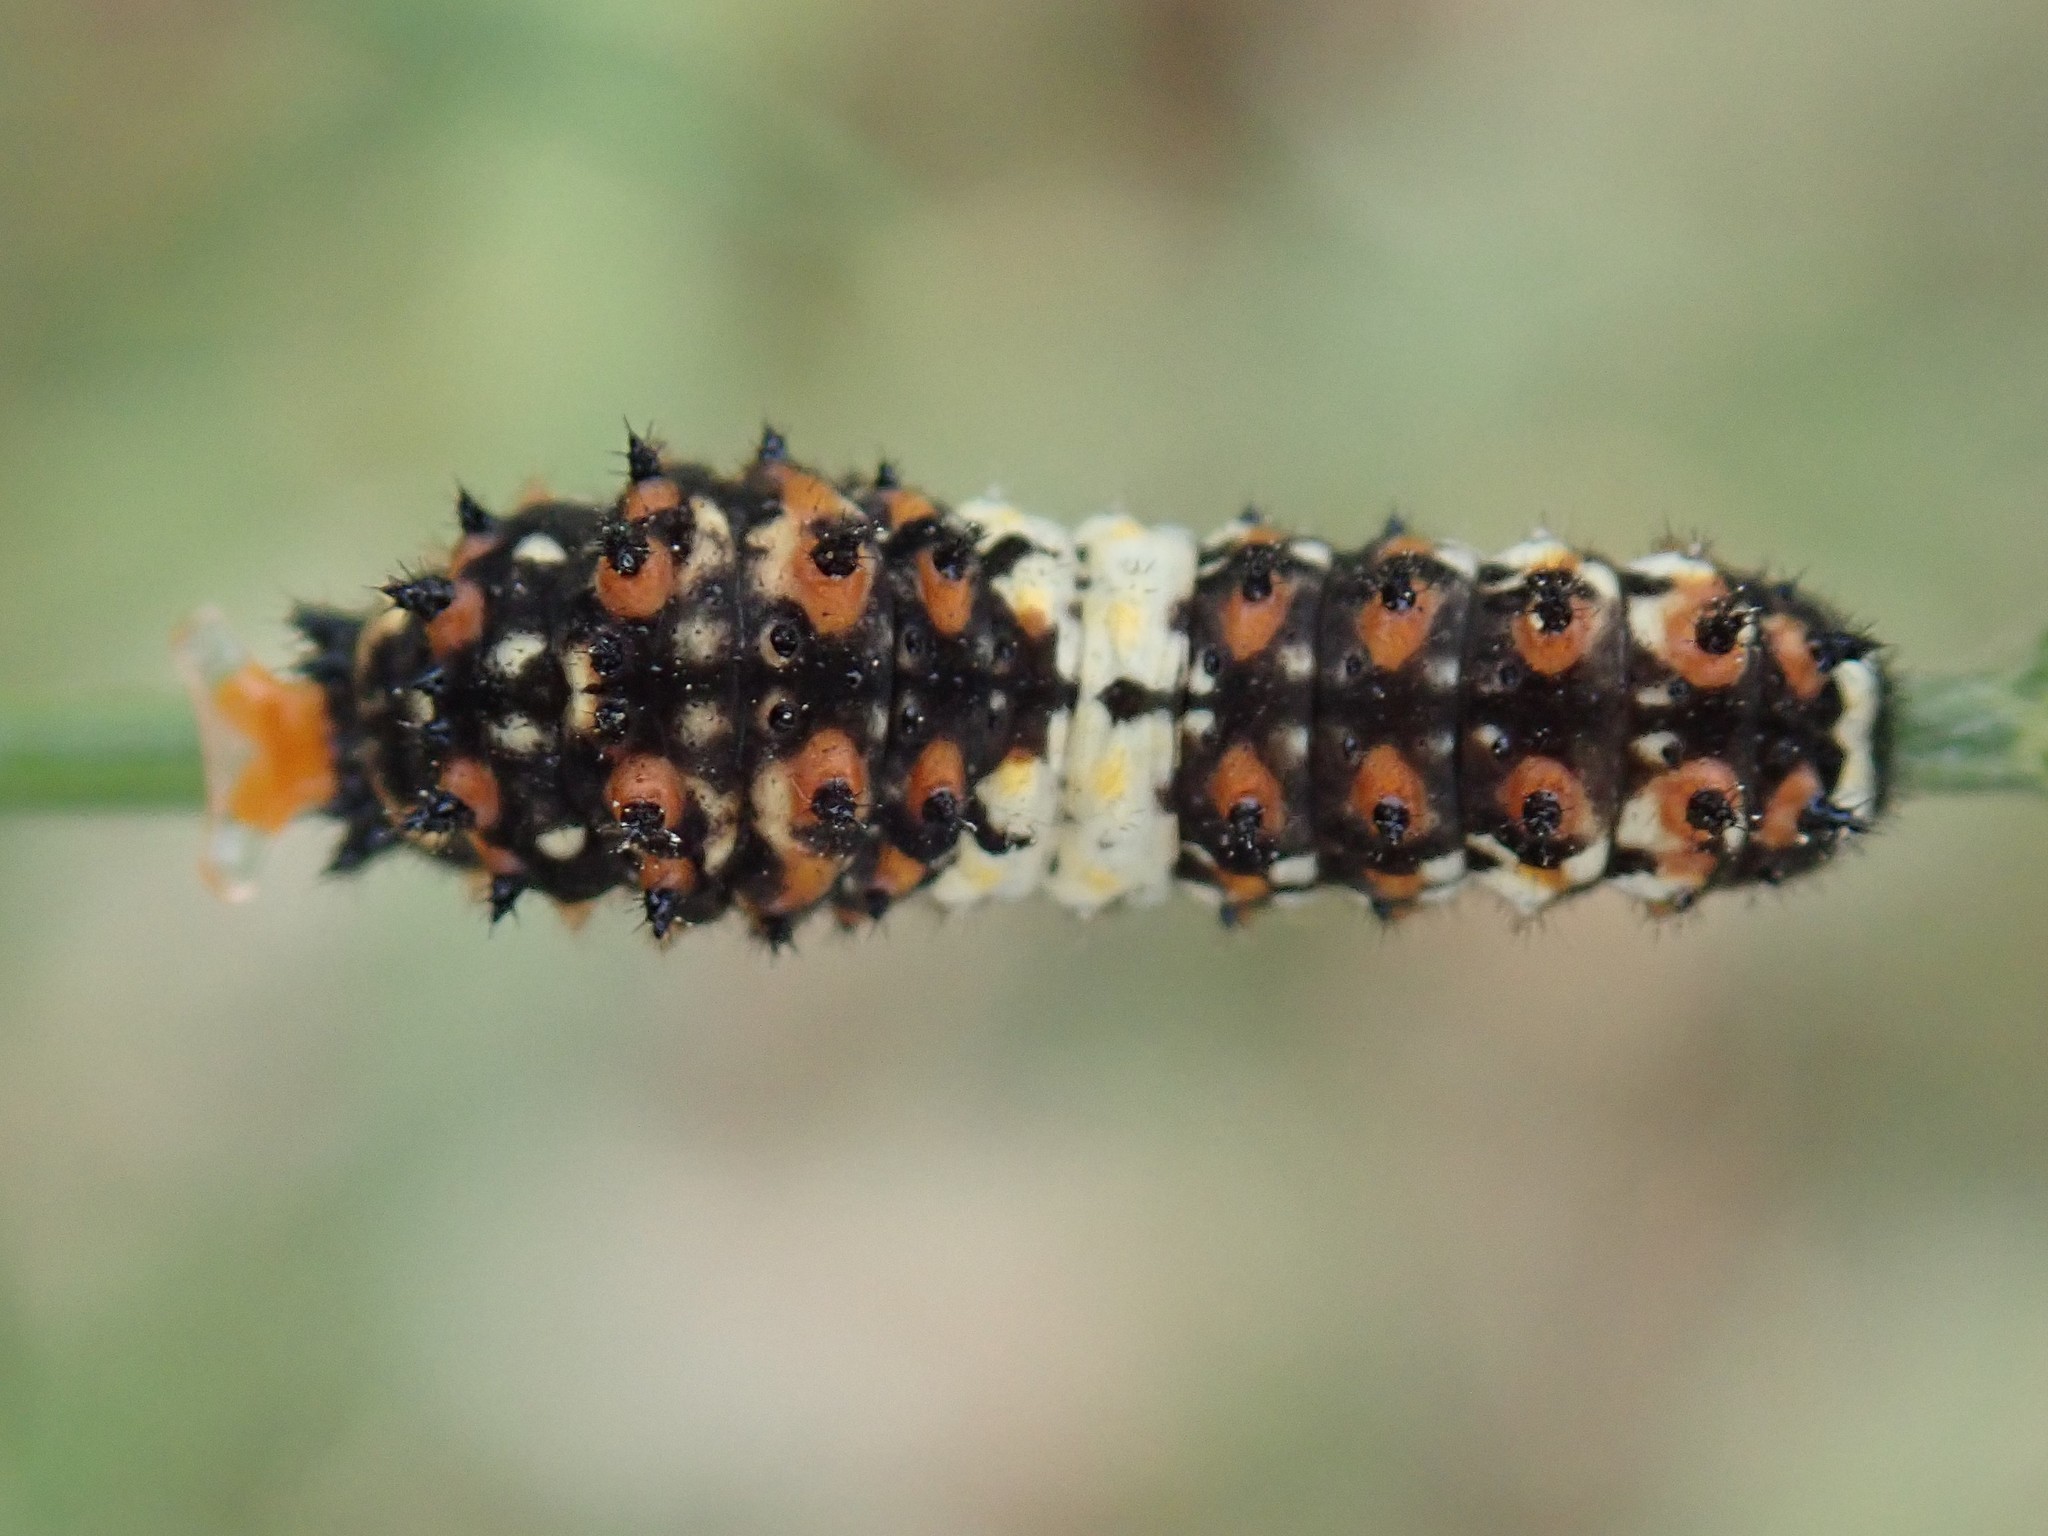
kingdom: Animalia
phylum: Arthropoda
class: Insecta
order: Lepidoptera
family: Papilionidae
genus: Papilio
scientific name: Papilio zelicaon
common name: Anise swallowtail
